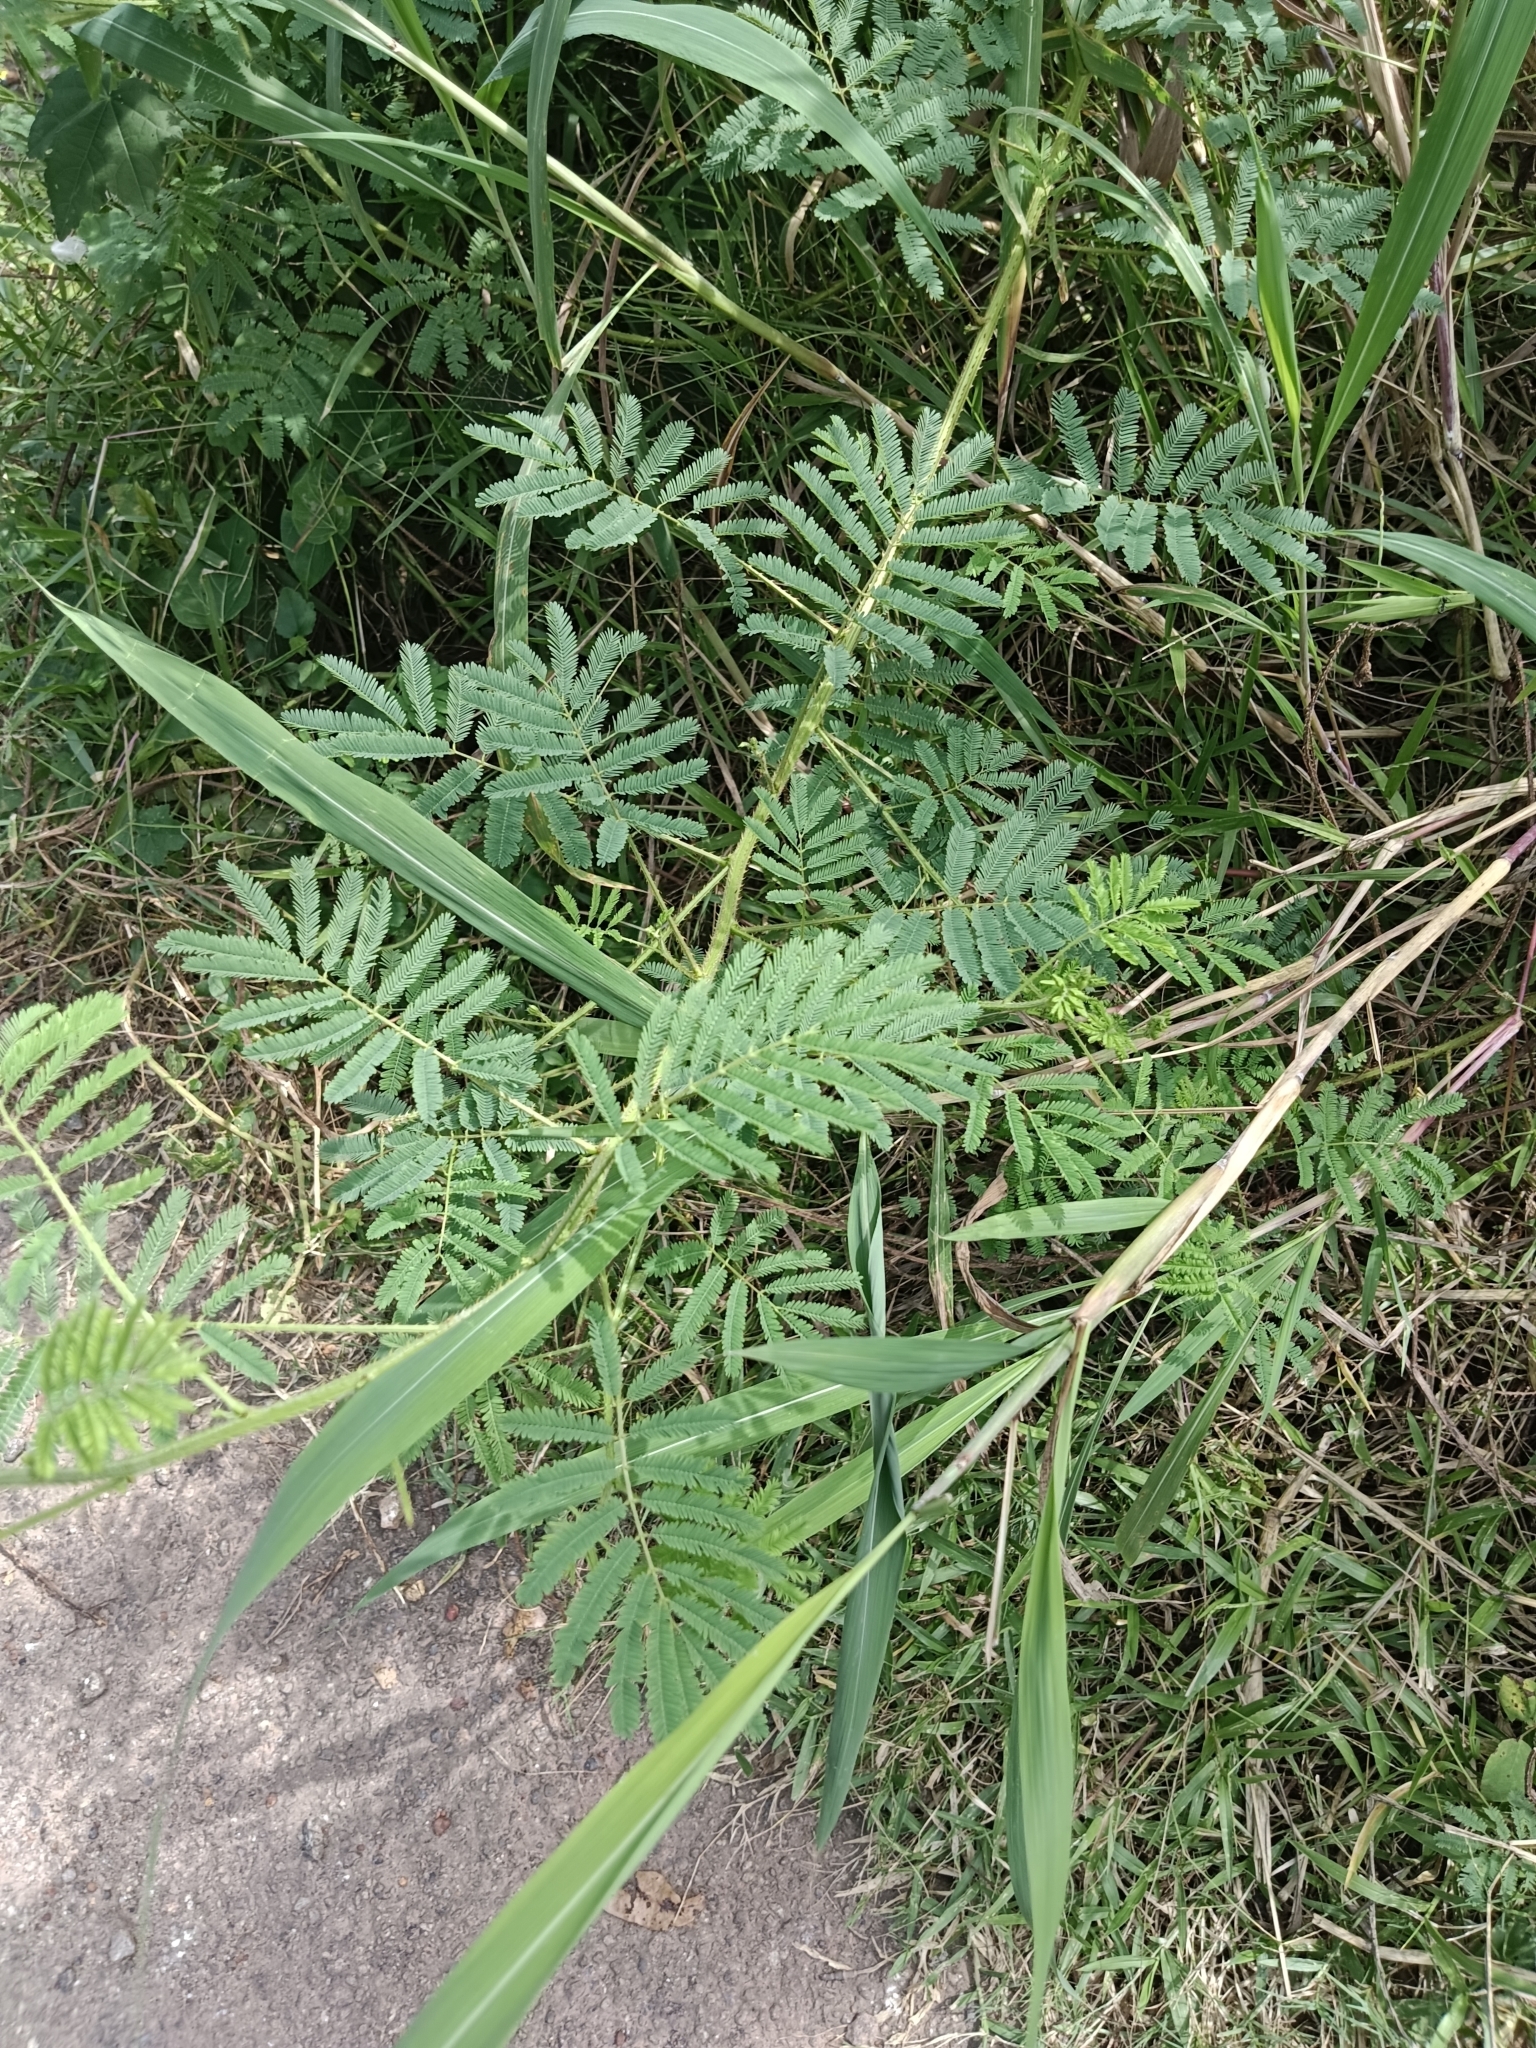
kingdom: Plantae
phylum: Tracheophyta
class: Magnoliopsida
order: Fabales
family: Fabaceae
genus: Mimosa
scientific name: Mimosa diplotricha
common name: Giant sensitive-plant
